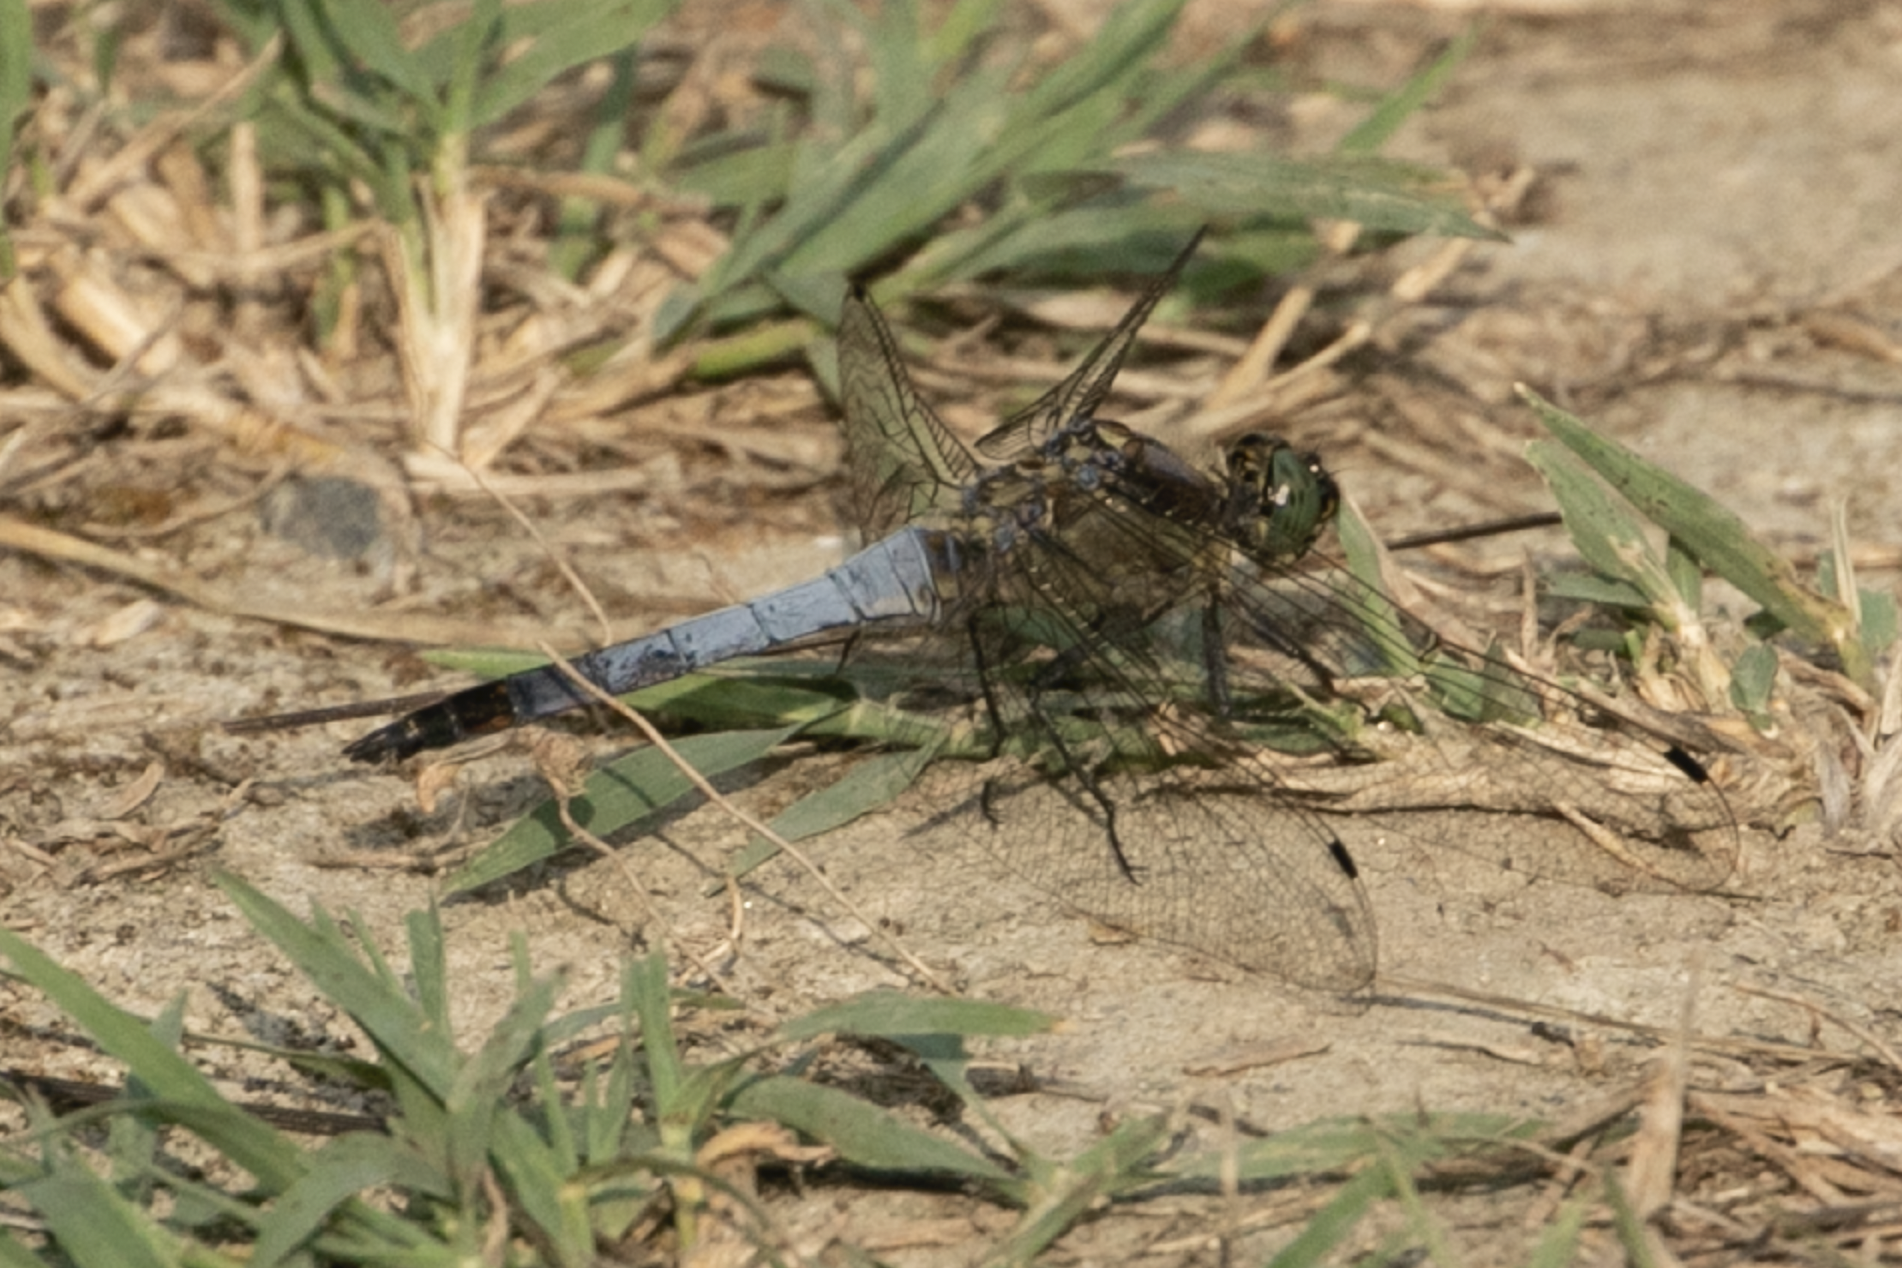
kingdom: Animalia
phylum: Arthropoda
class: Insecta
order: Odonata
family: Libellulidae
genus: Orthetrum
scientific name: Orthetrum cancellatum
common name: Black-tailed skimmer
